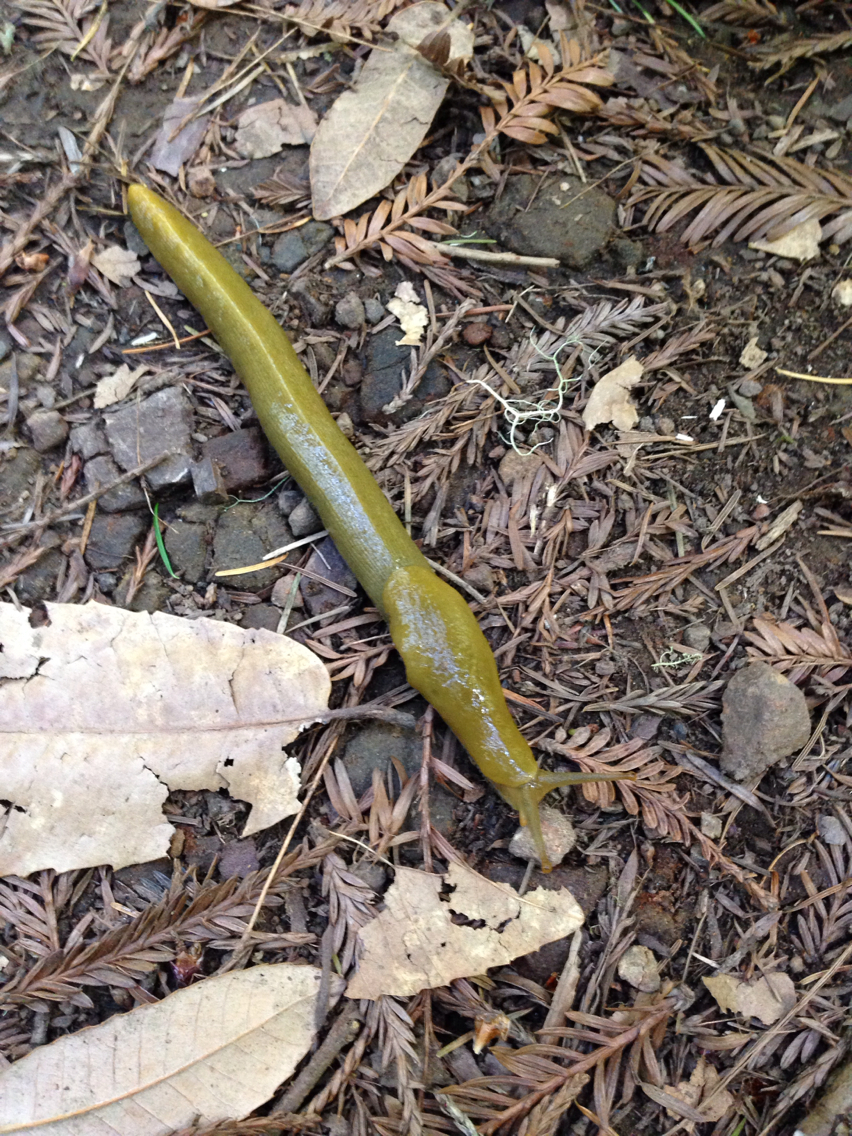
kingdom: Animalia
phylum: Mollusca
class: Gastropoda
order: Stylommatophora
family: Ariolimacidae
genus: Ariolimax
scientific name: Ariolimax buttoni
